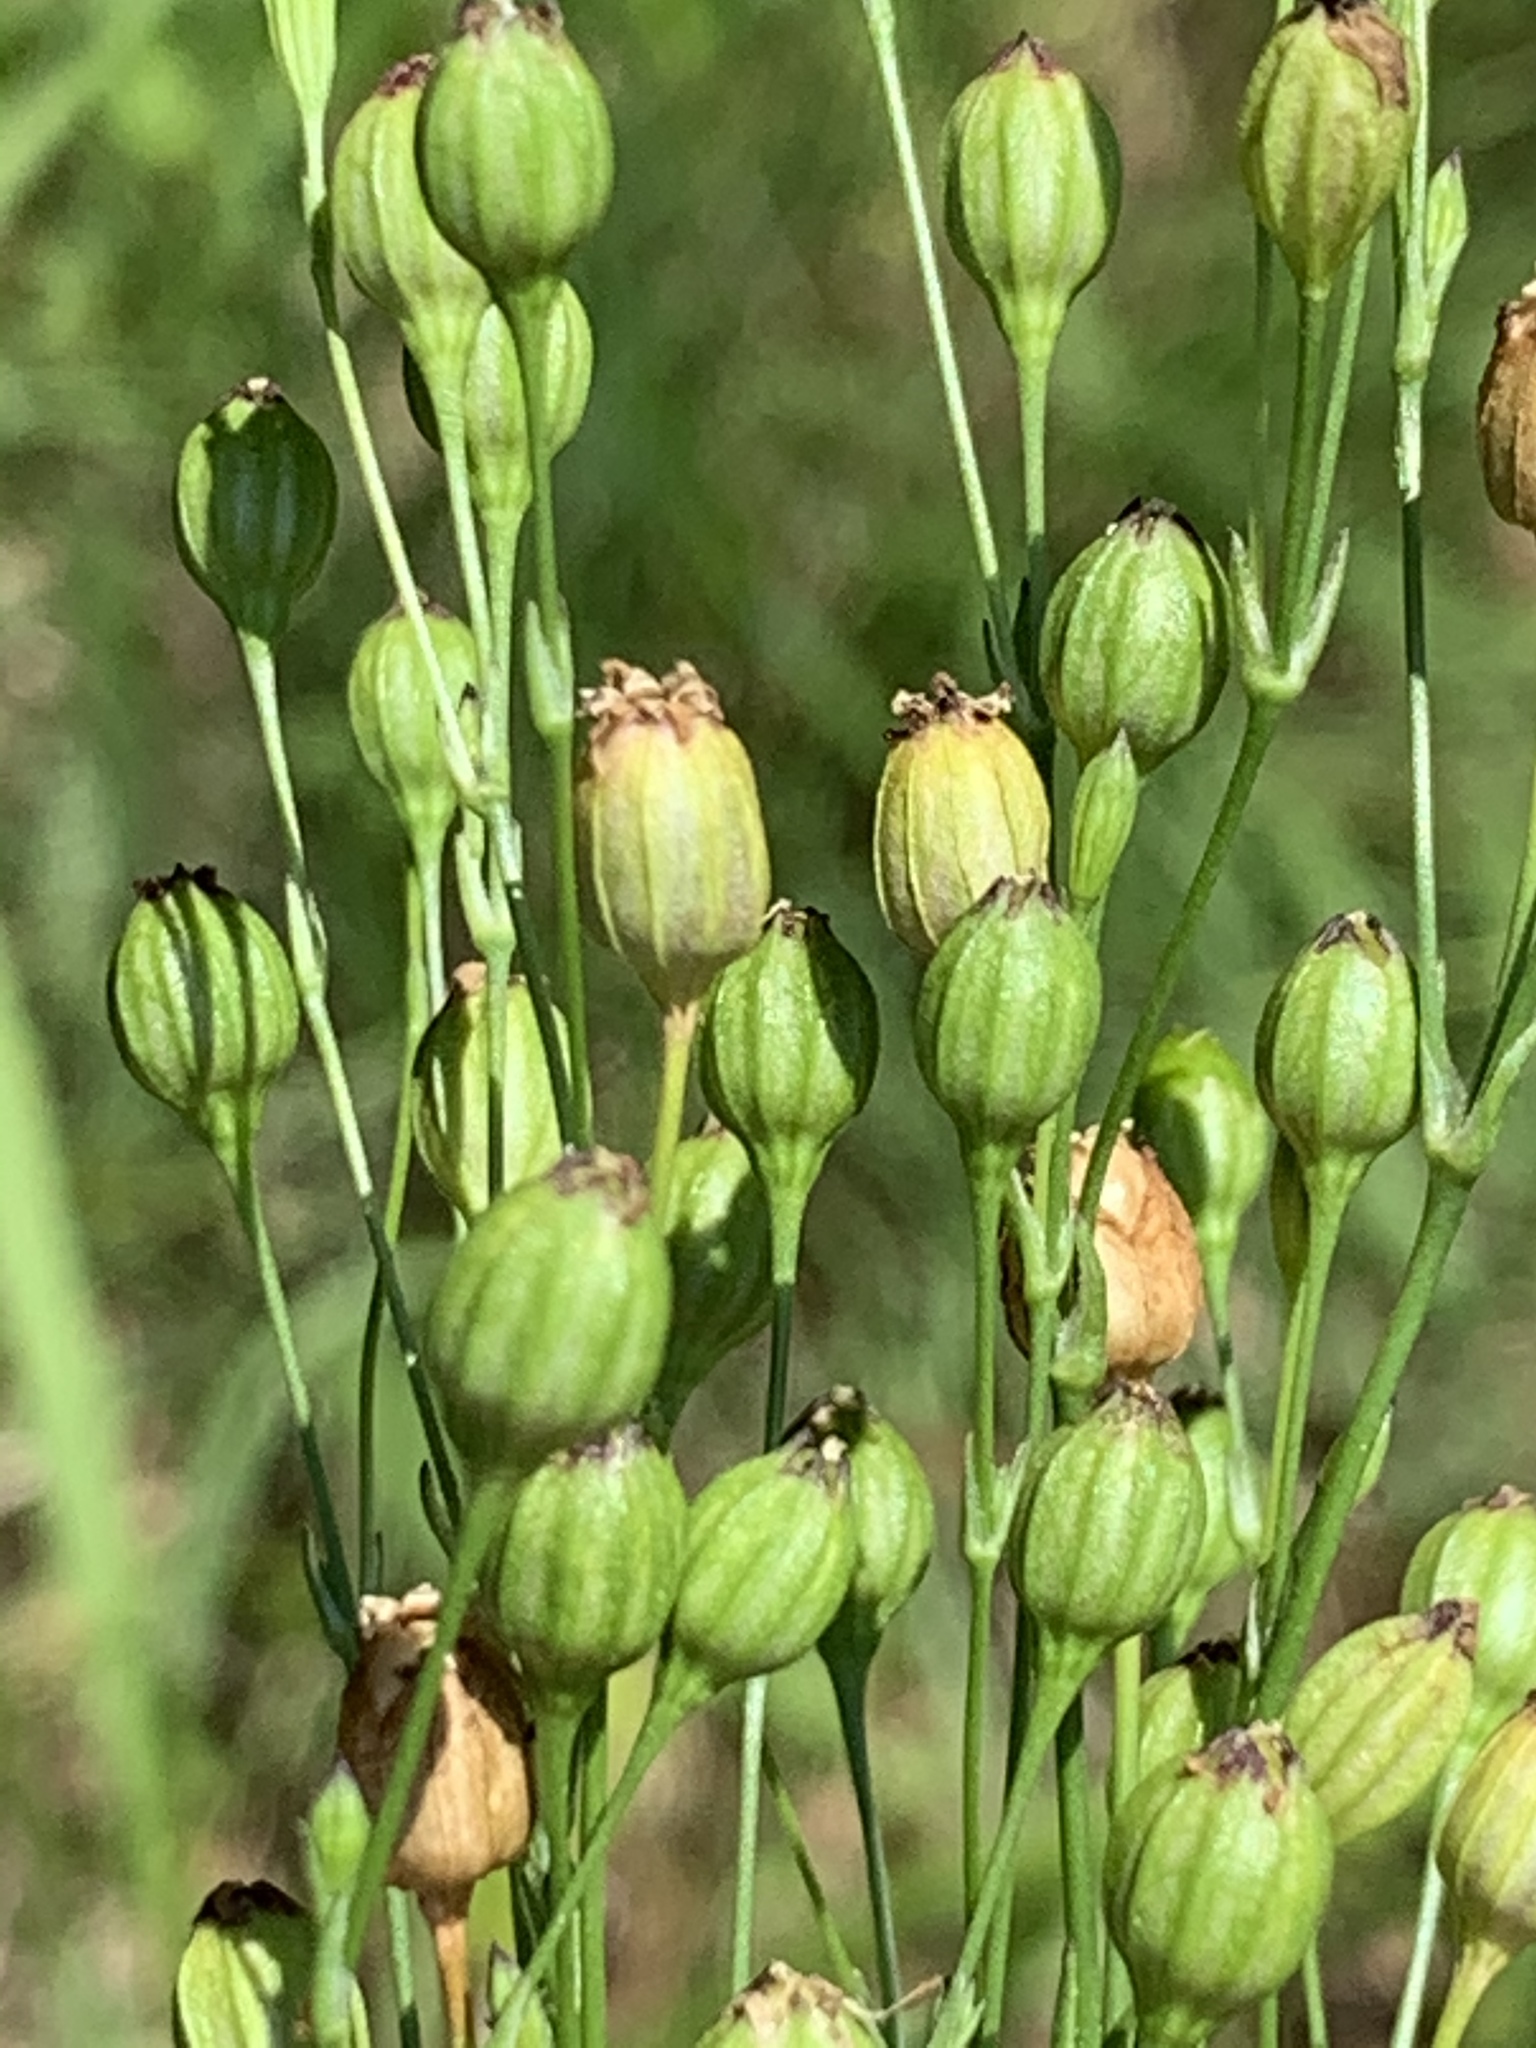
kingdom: Plantae
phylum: Tracheophyta
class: Magnoliopsida
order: Caryophyllales
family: Caryophyllaceae
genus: Silene
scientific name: Silene antirrhina
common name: Sleepy catchfly
